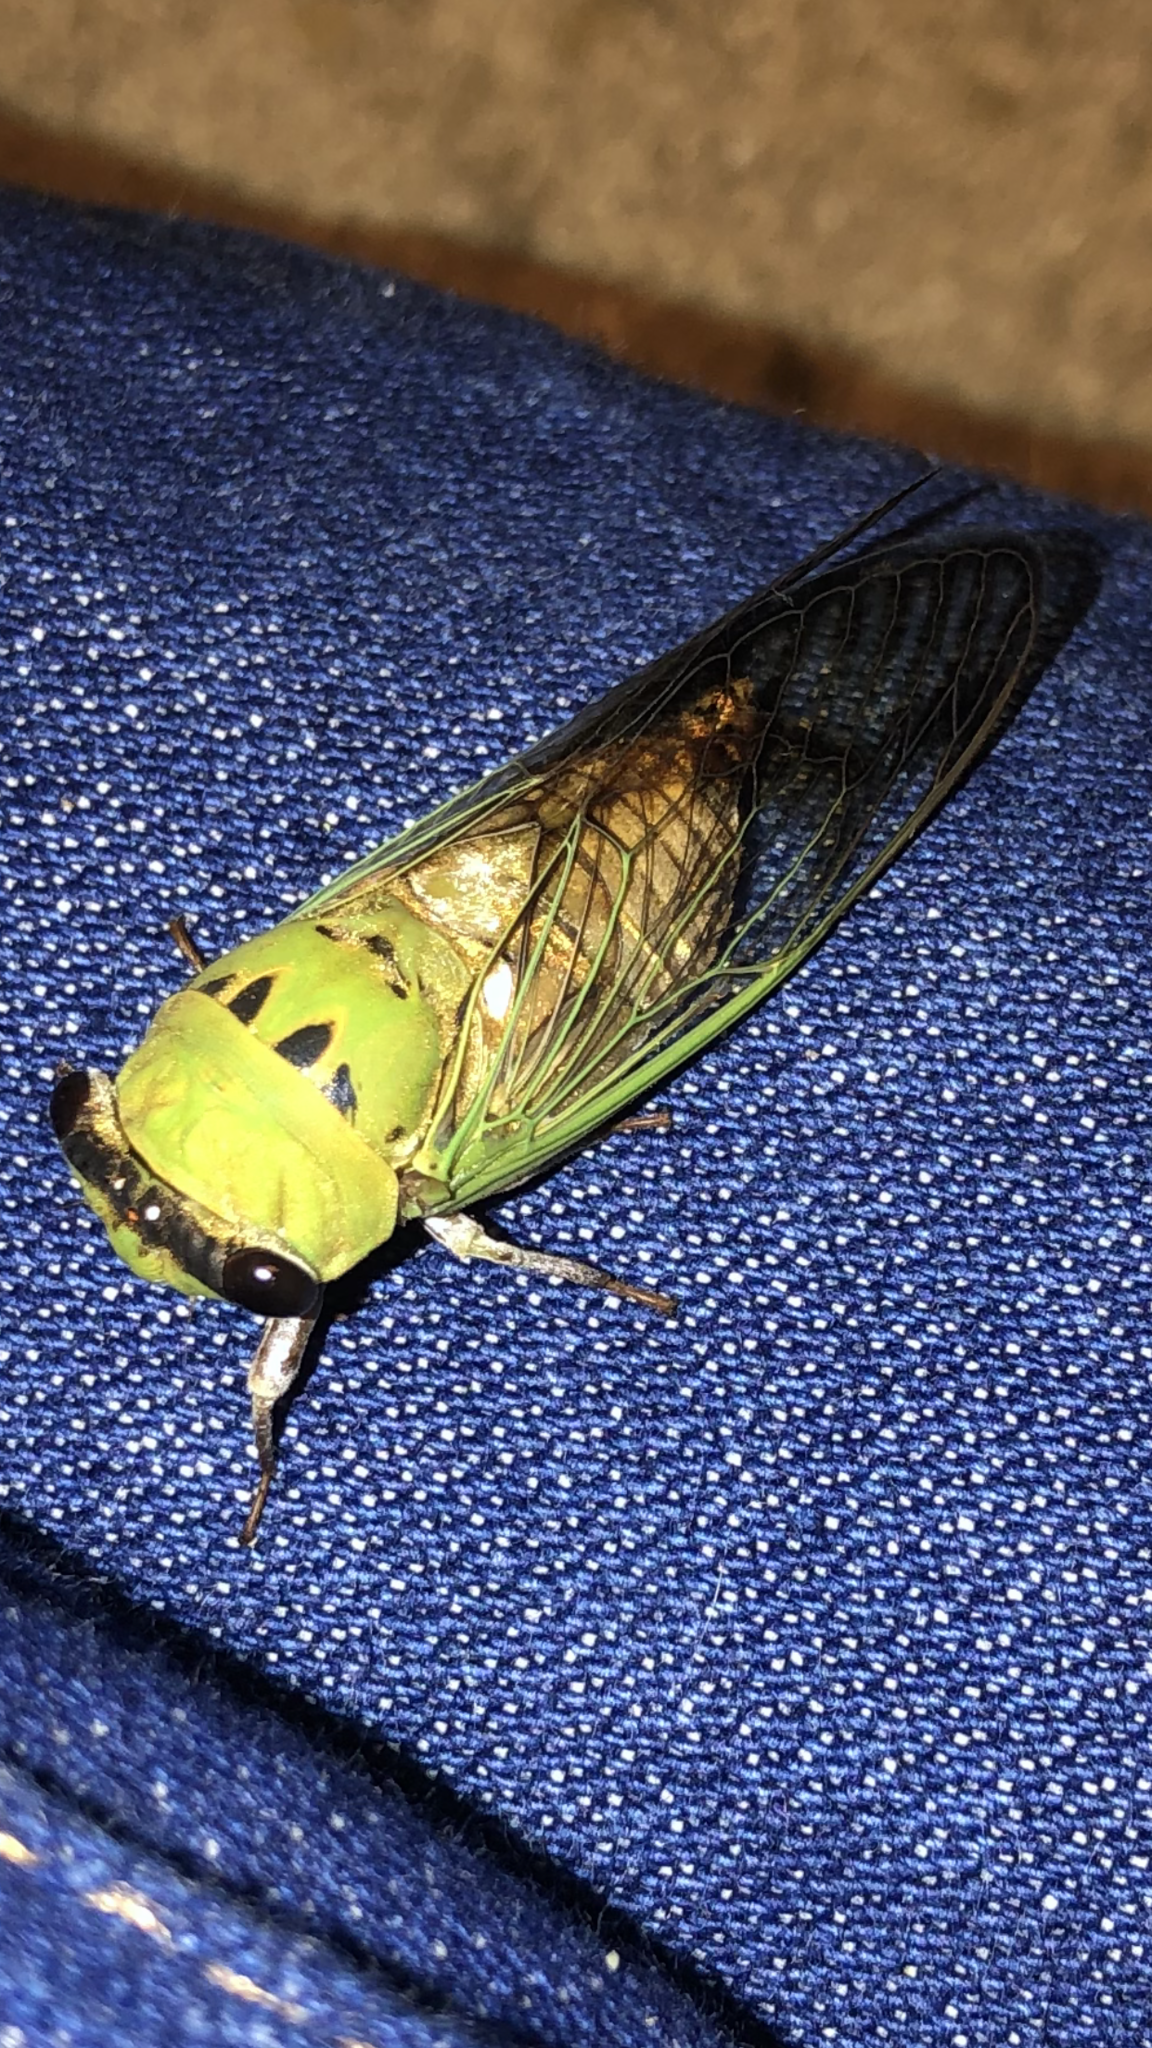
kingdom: Animalia
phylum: Arthropoda
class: Insecta
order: Hemiptera
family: Cicadidae
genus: Neotibicen
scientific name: Neotibicen superbus
